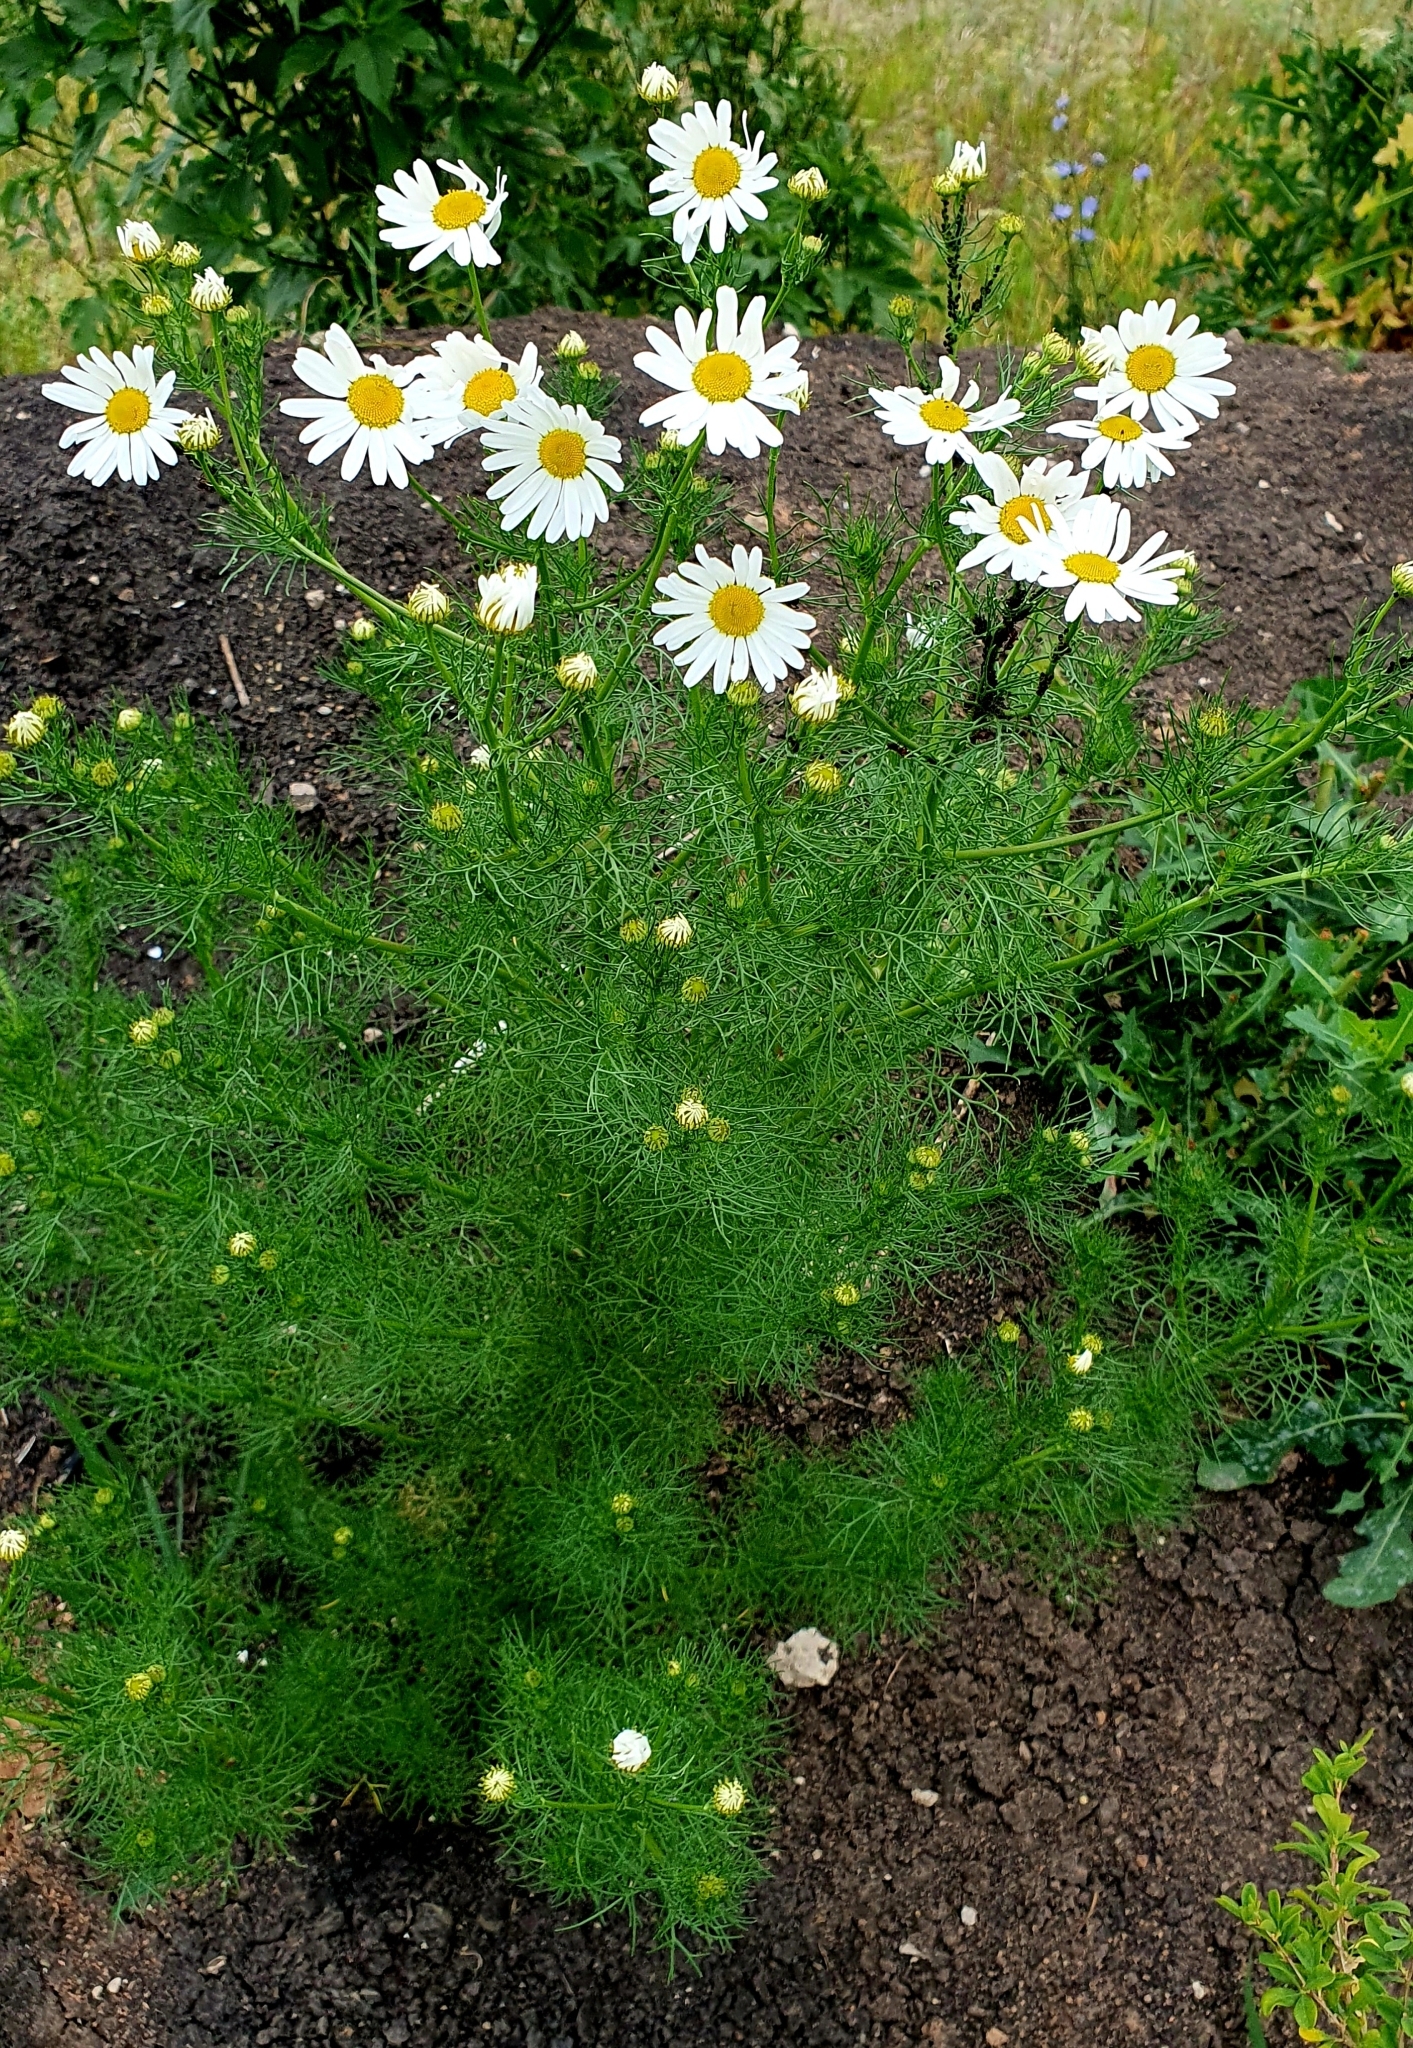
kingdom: Plantae
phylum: Tracheophyta
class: Magnoliopsida
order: Asterales
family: Asteraceae
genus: Tripleurospermum
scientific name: Tripleurospermum inodorum
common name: Scentless mayweed
